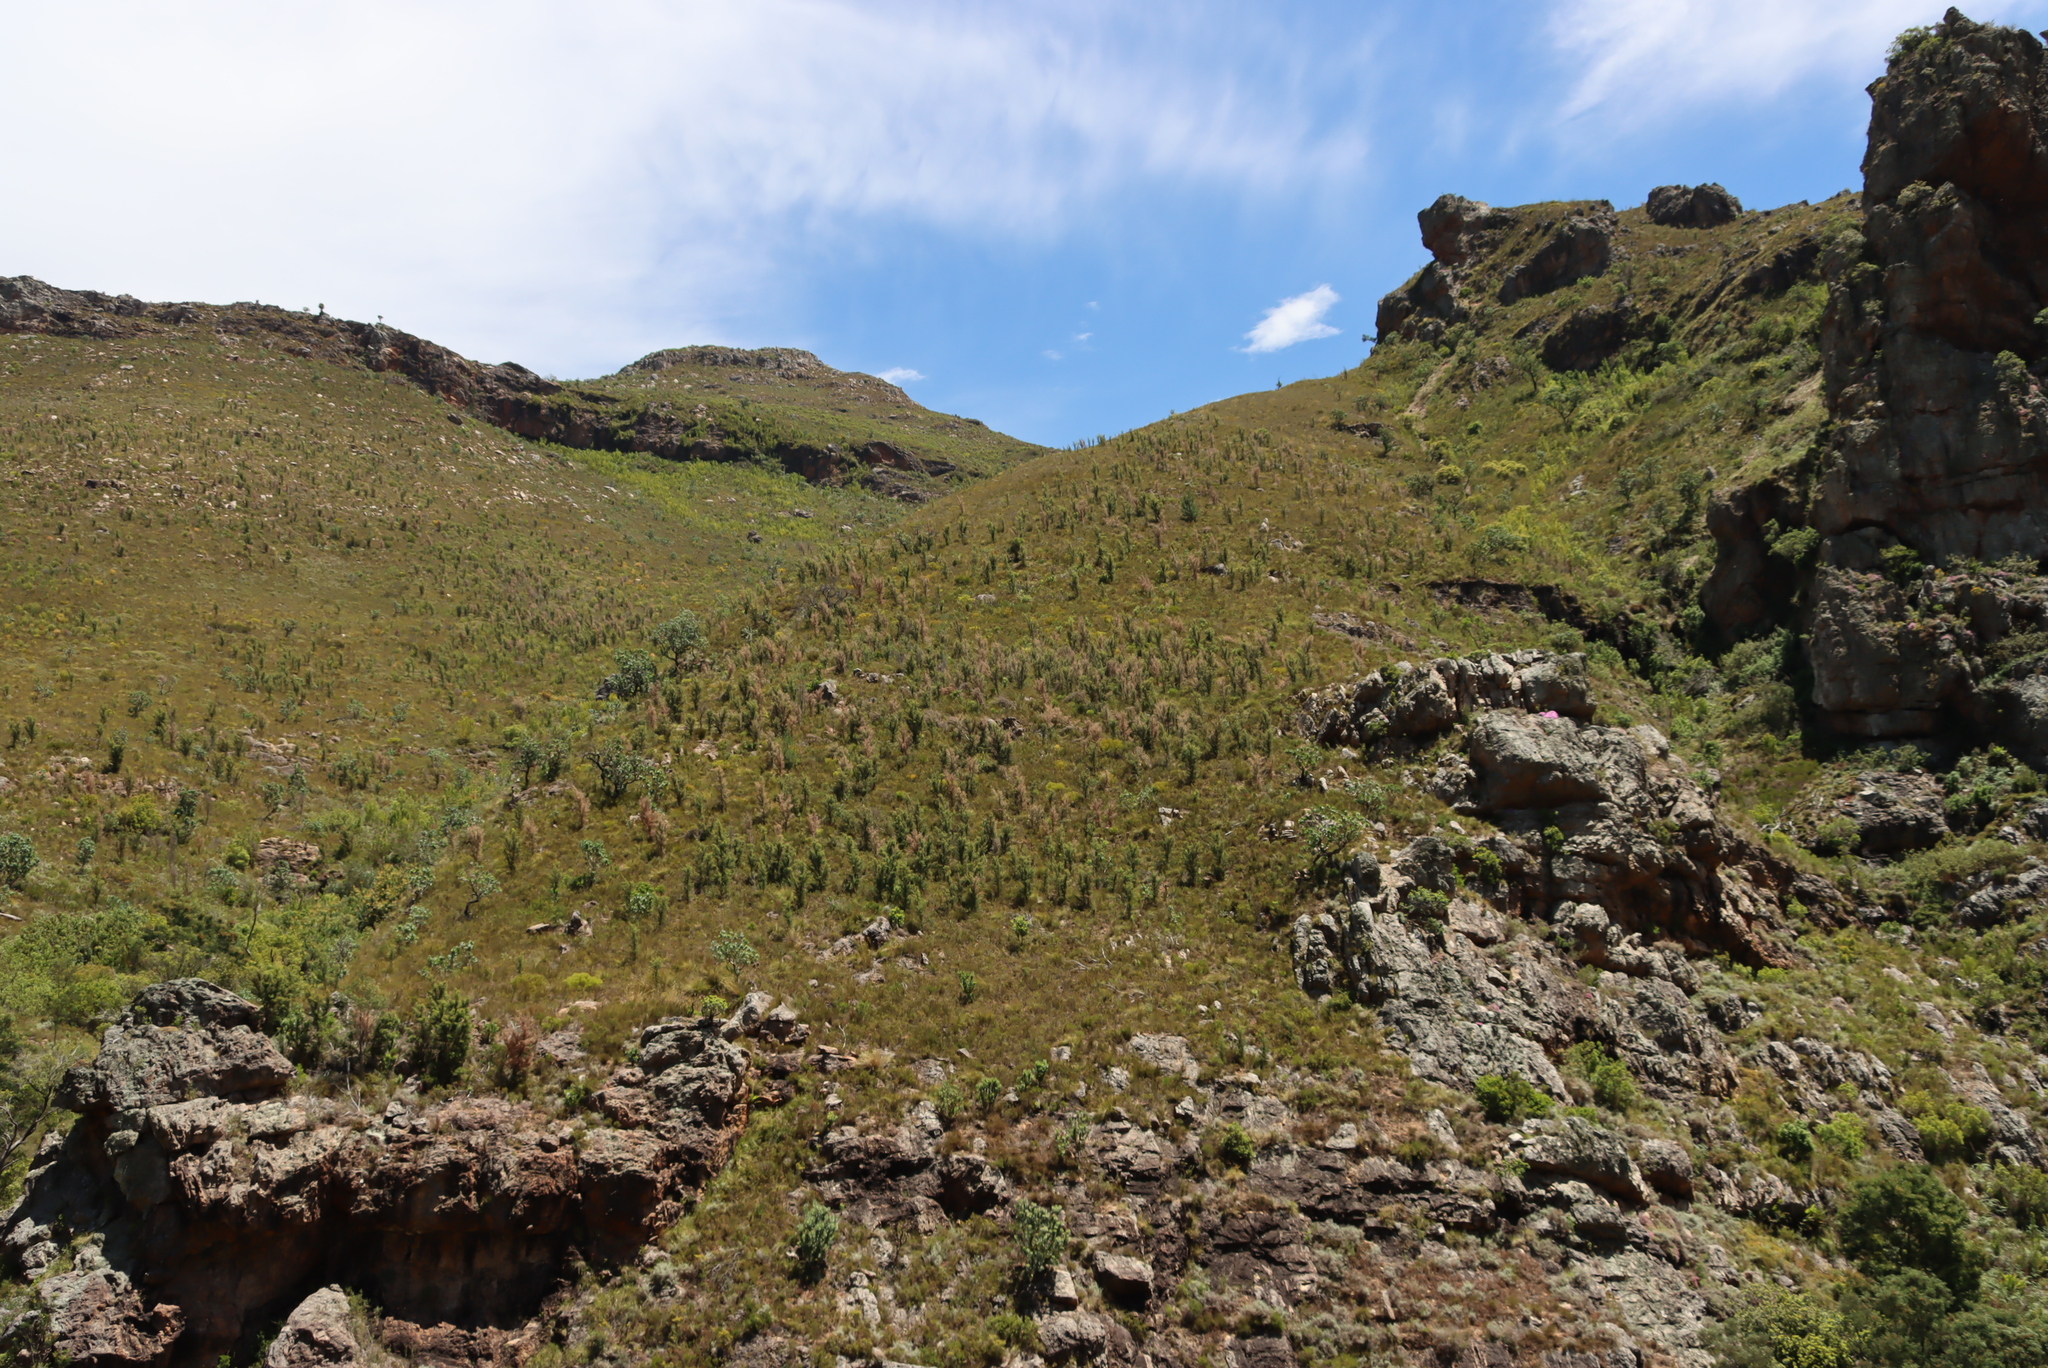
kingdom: Plantae
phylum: Tracheophyta
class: Magnoliopsida
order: Proteales
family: Proteaceae
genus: Hakea
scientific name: Hakea sericea
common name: Needle bush
